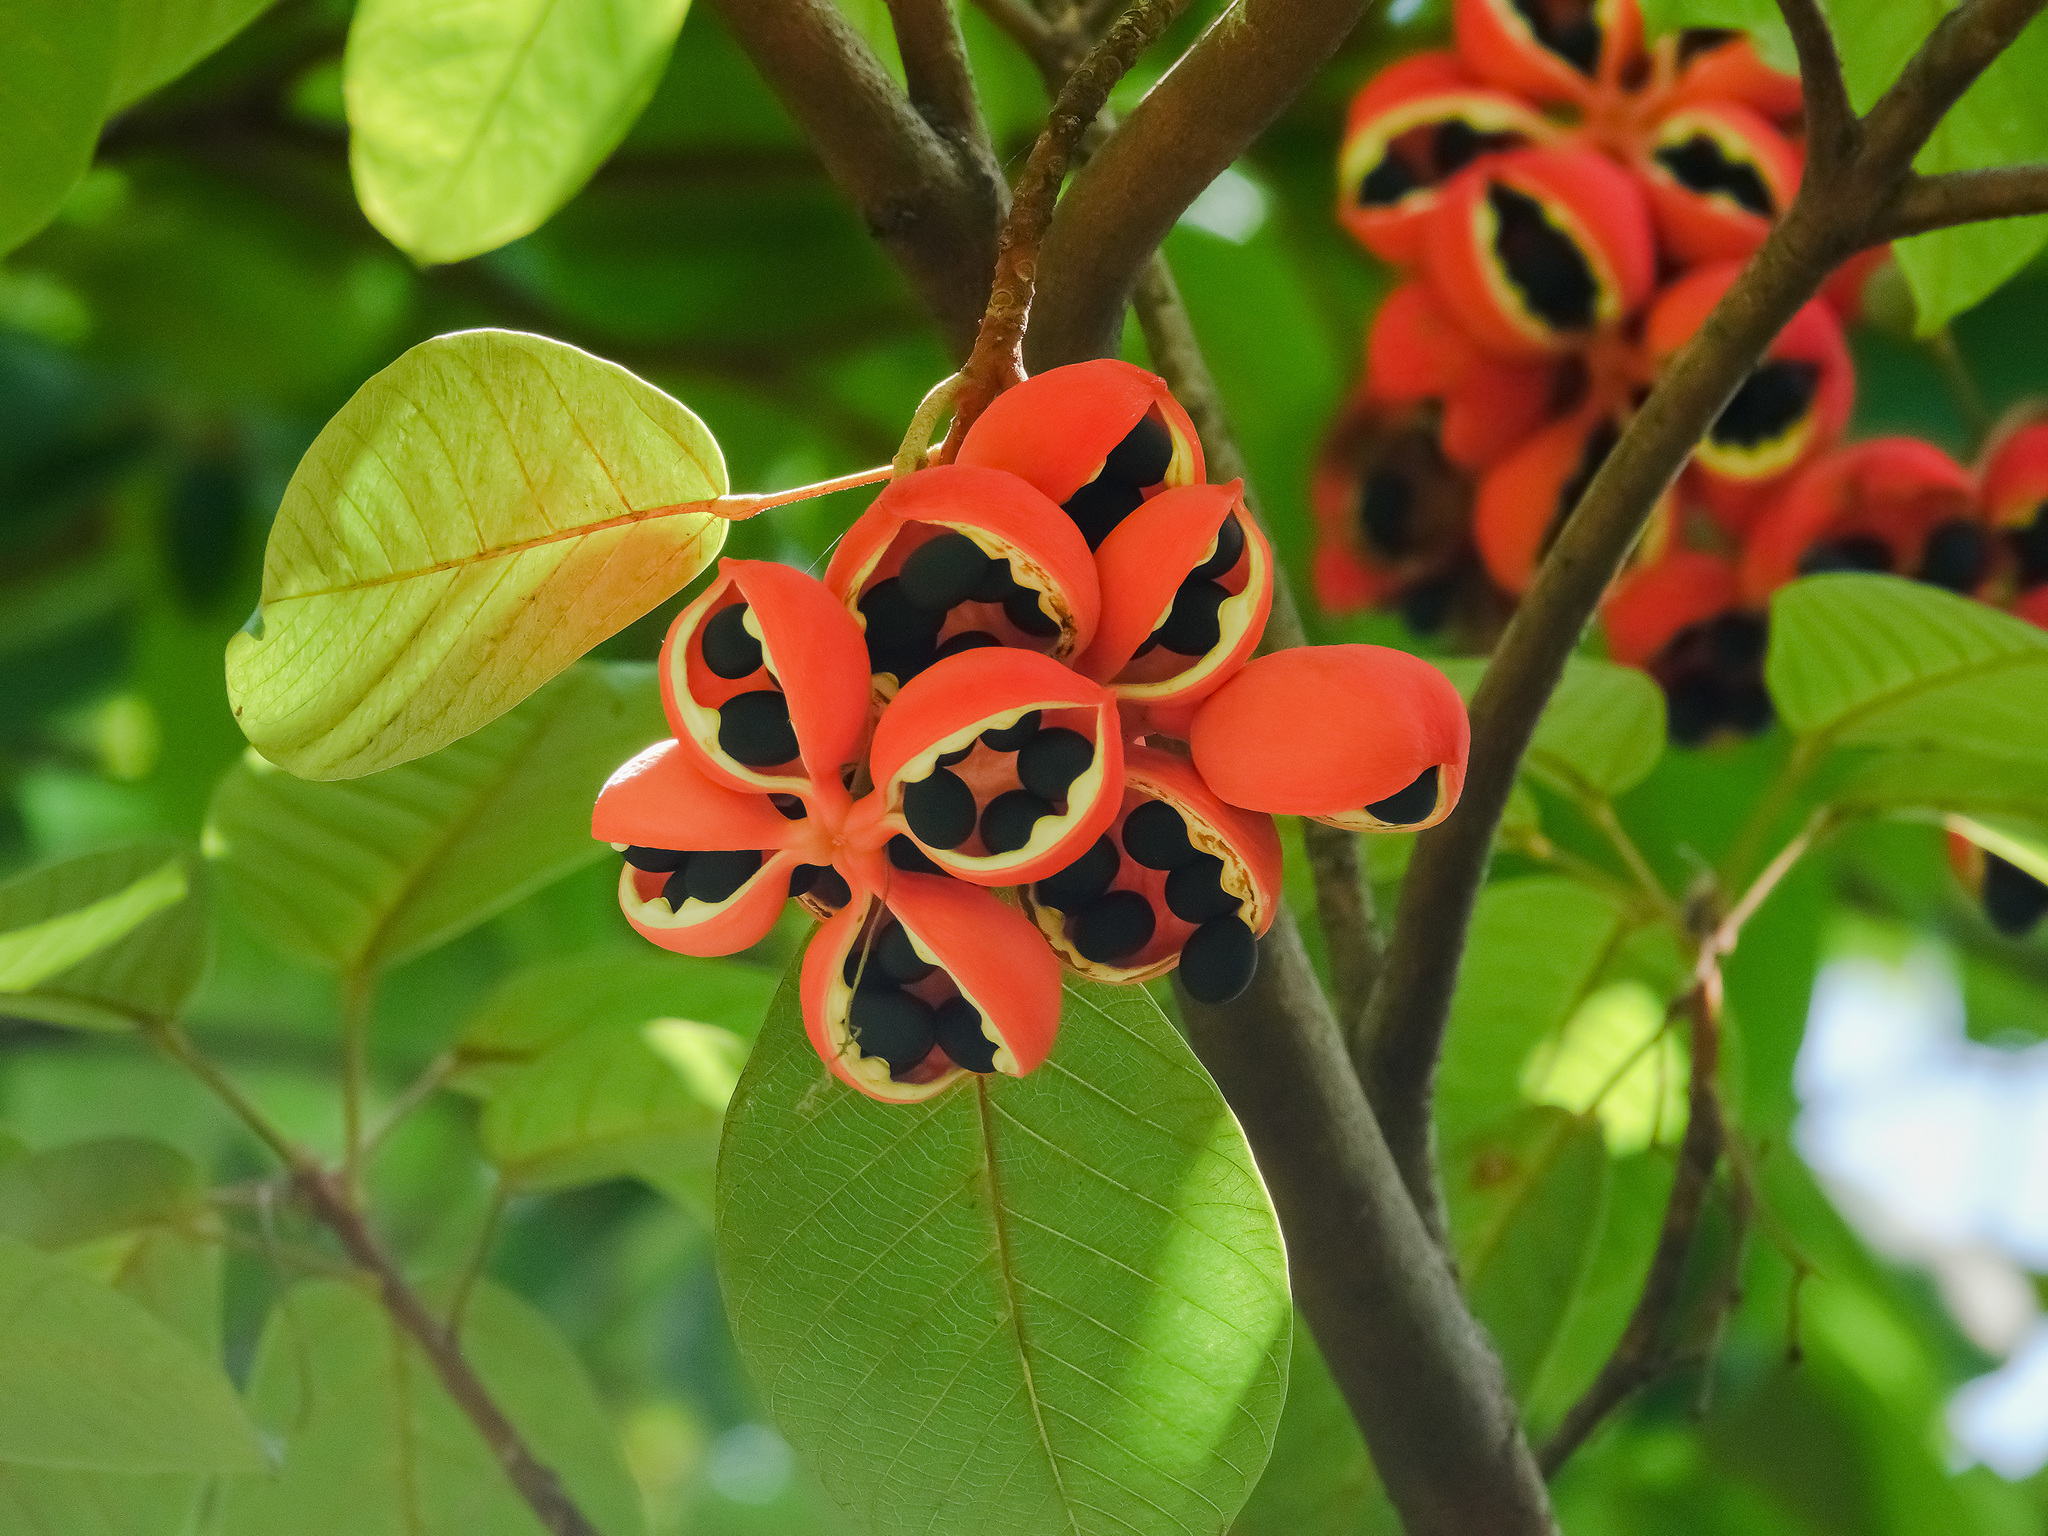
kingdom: Plantae
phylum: Tracheophyta
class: Magnoliopsida
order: Malvales
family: Malvaceae
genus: Sterculia
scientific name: Sterculia cordata
